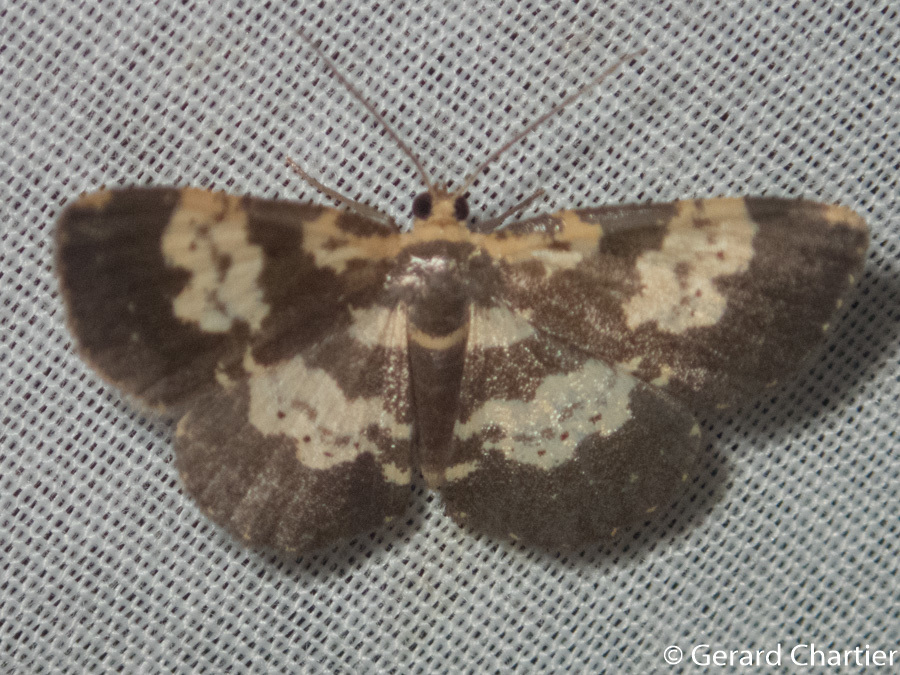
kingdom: Animalia
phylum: Arthropoda
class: Insecta
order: Lepidoptera
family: Geometridae
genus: Peratophyga
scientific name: Peratophyga bifasciata
